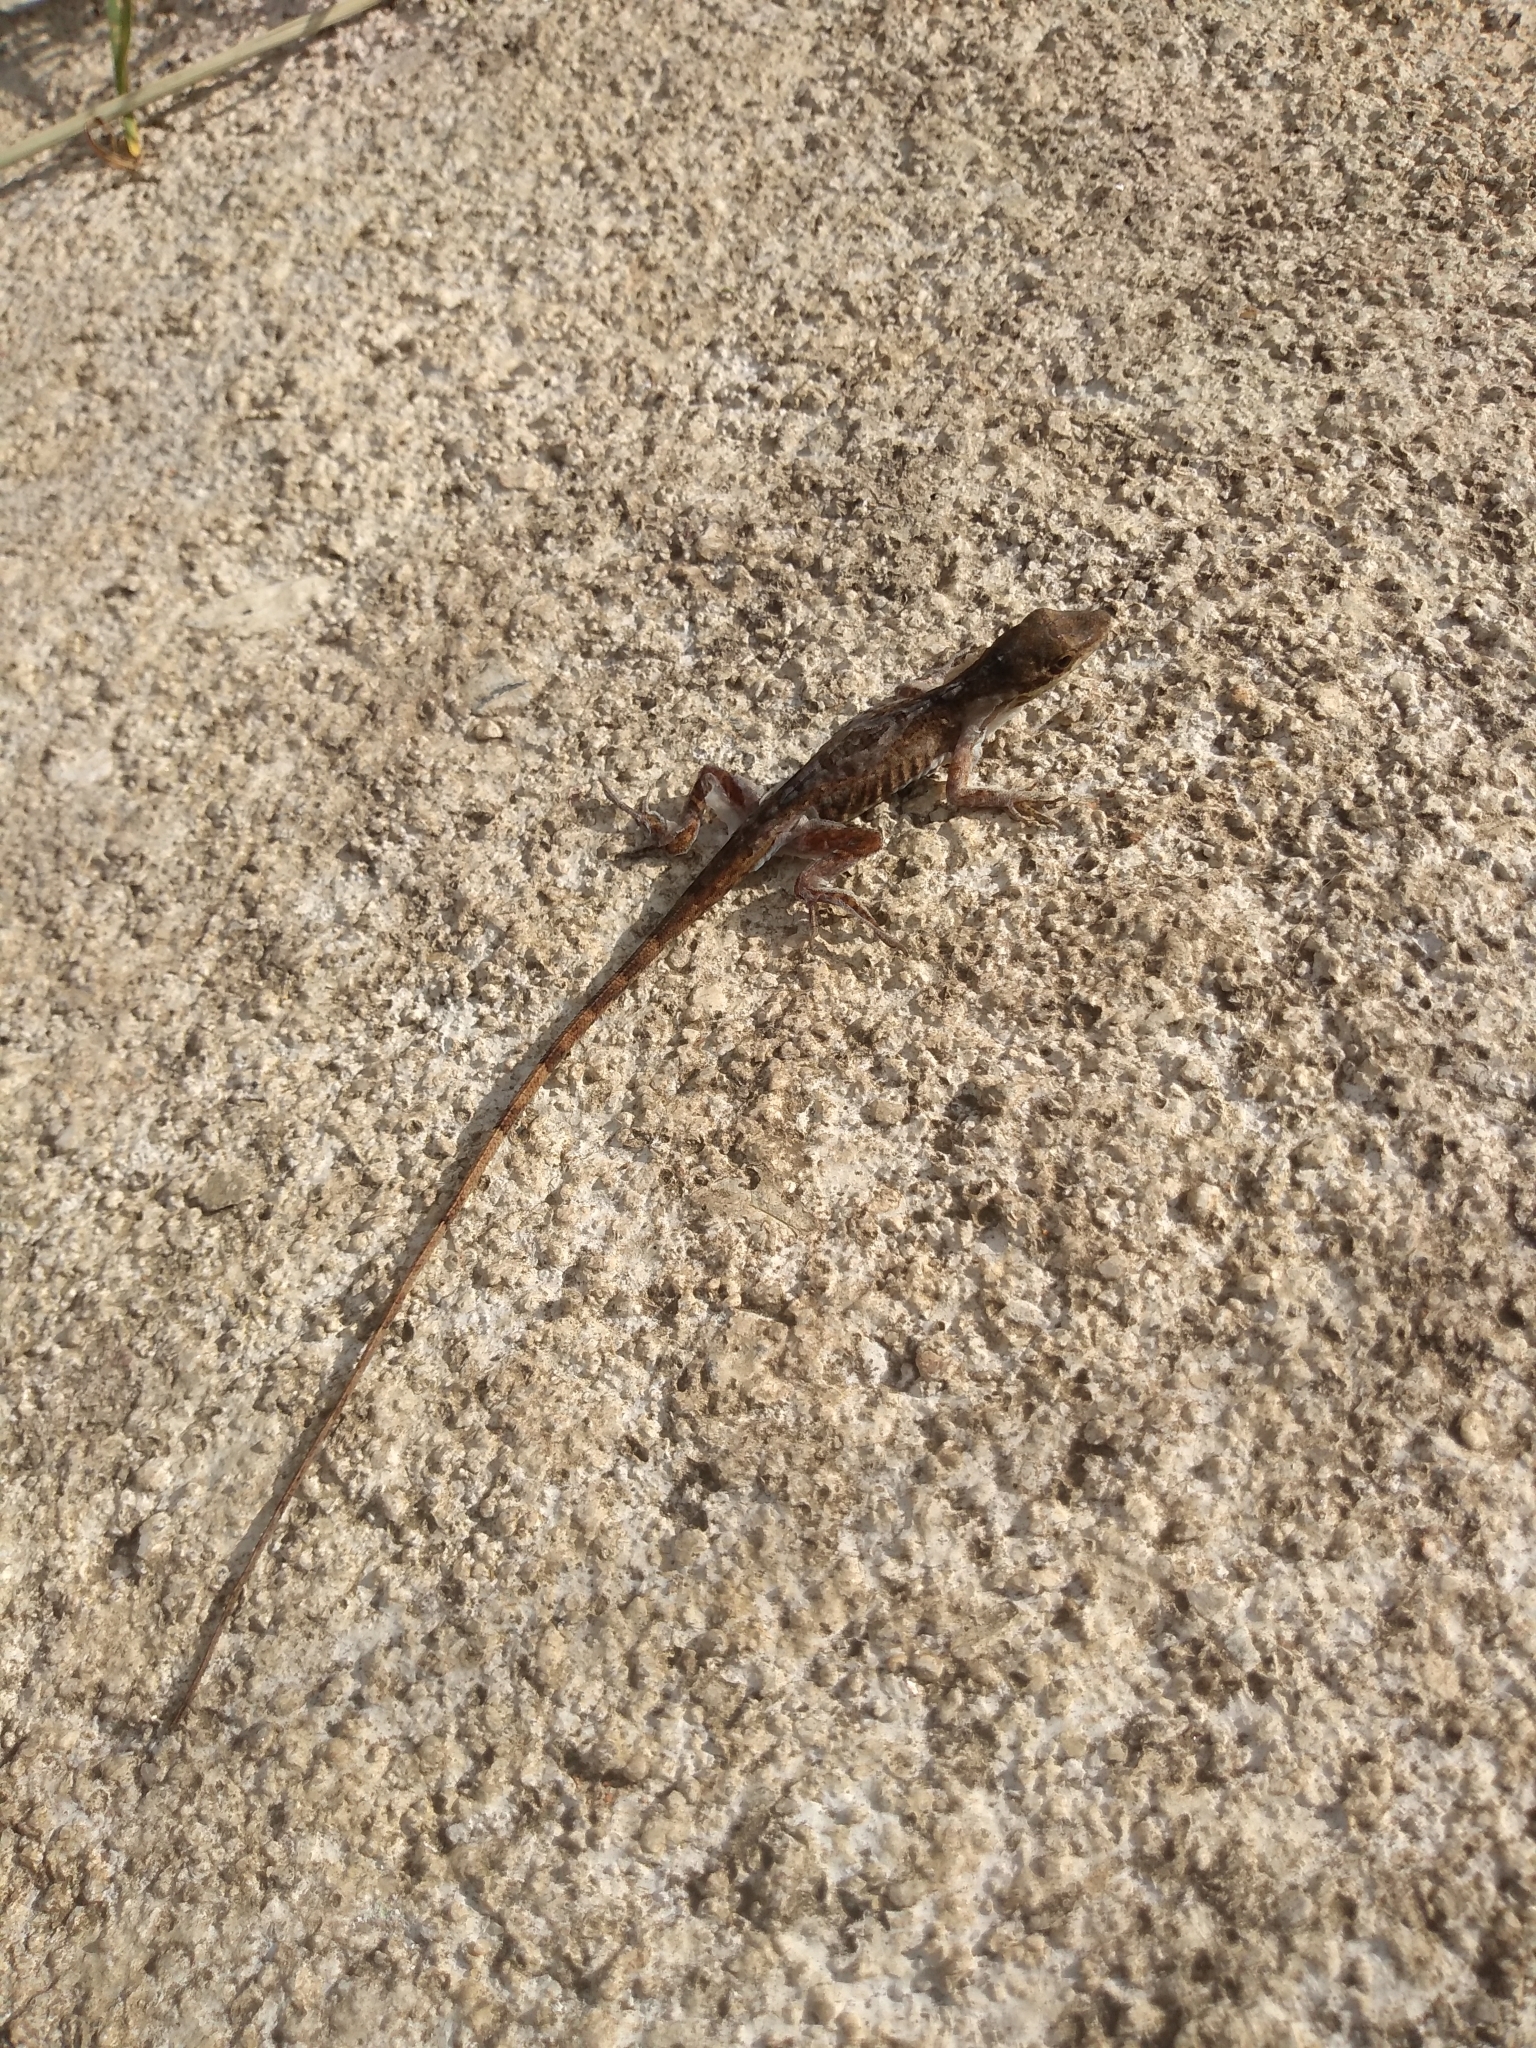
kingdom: Animalia
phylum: Chordata
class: Squamata
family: Dactyloidae
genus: Anolis
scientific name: Anolis mariarum
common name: Blemished anole
